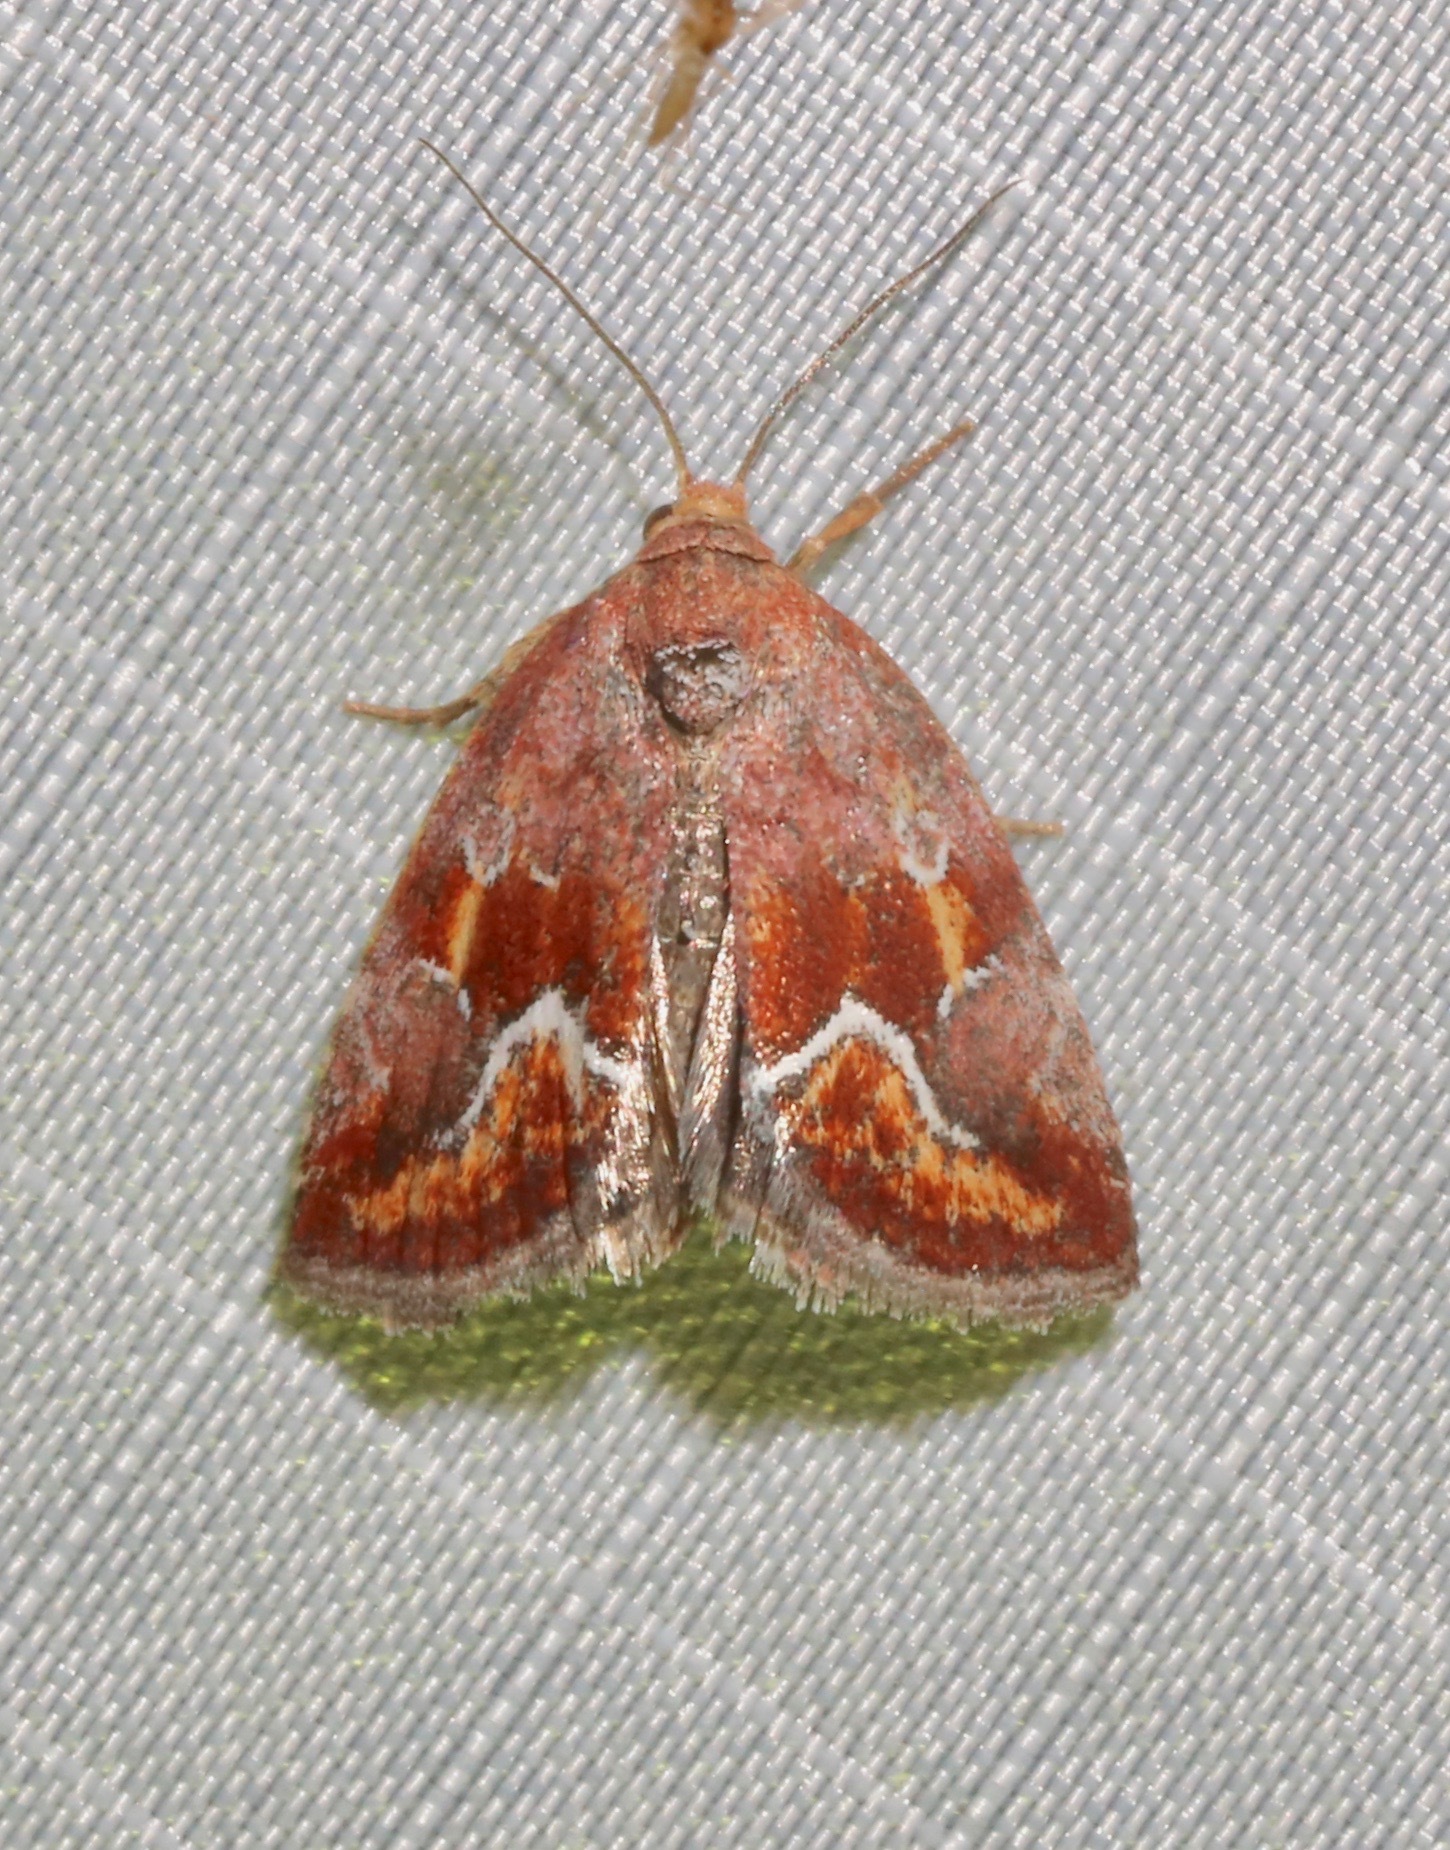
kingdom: Animalia
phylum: Arthropoda
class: Insecta
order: Lepidoptera
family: Noctuidae
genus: Deltote
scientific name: Deltote bellicula
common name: Bog glyph
